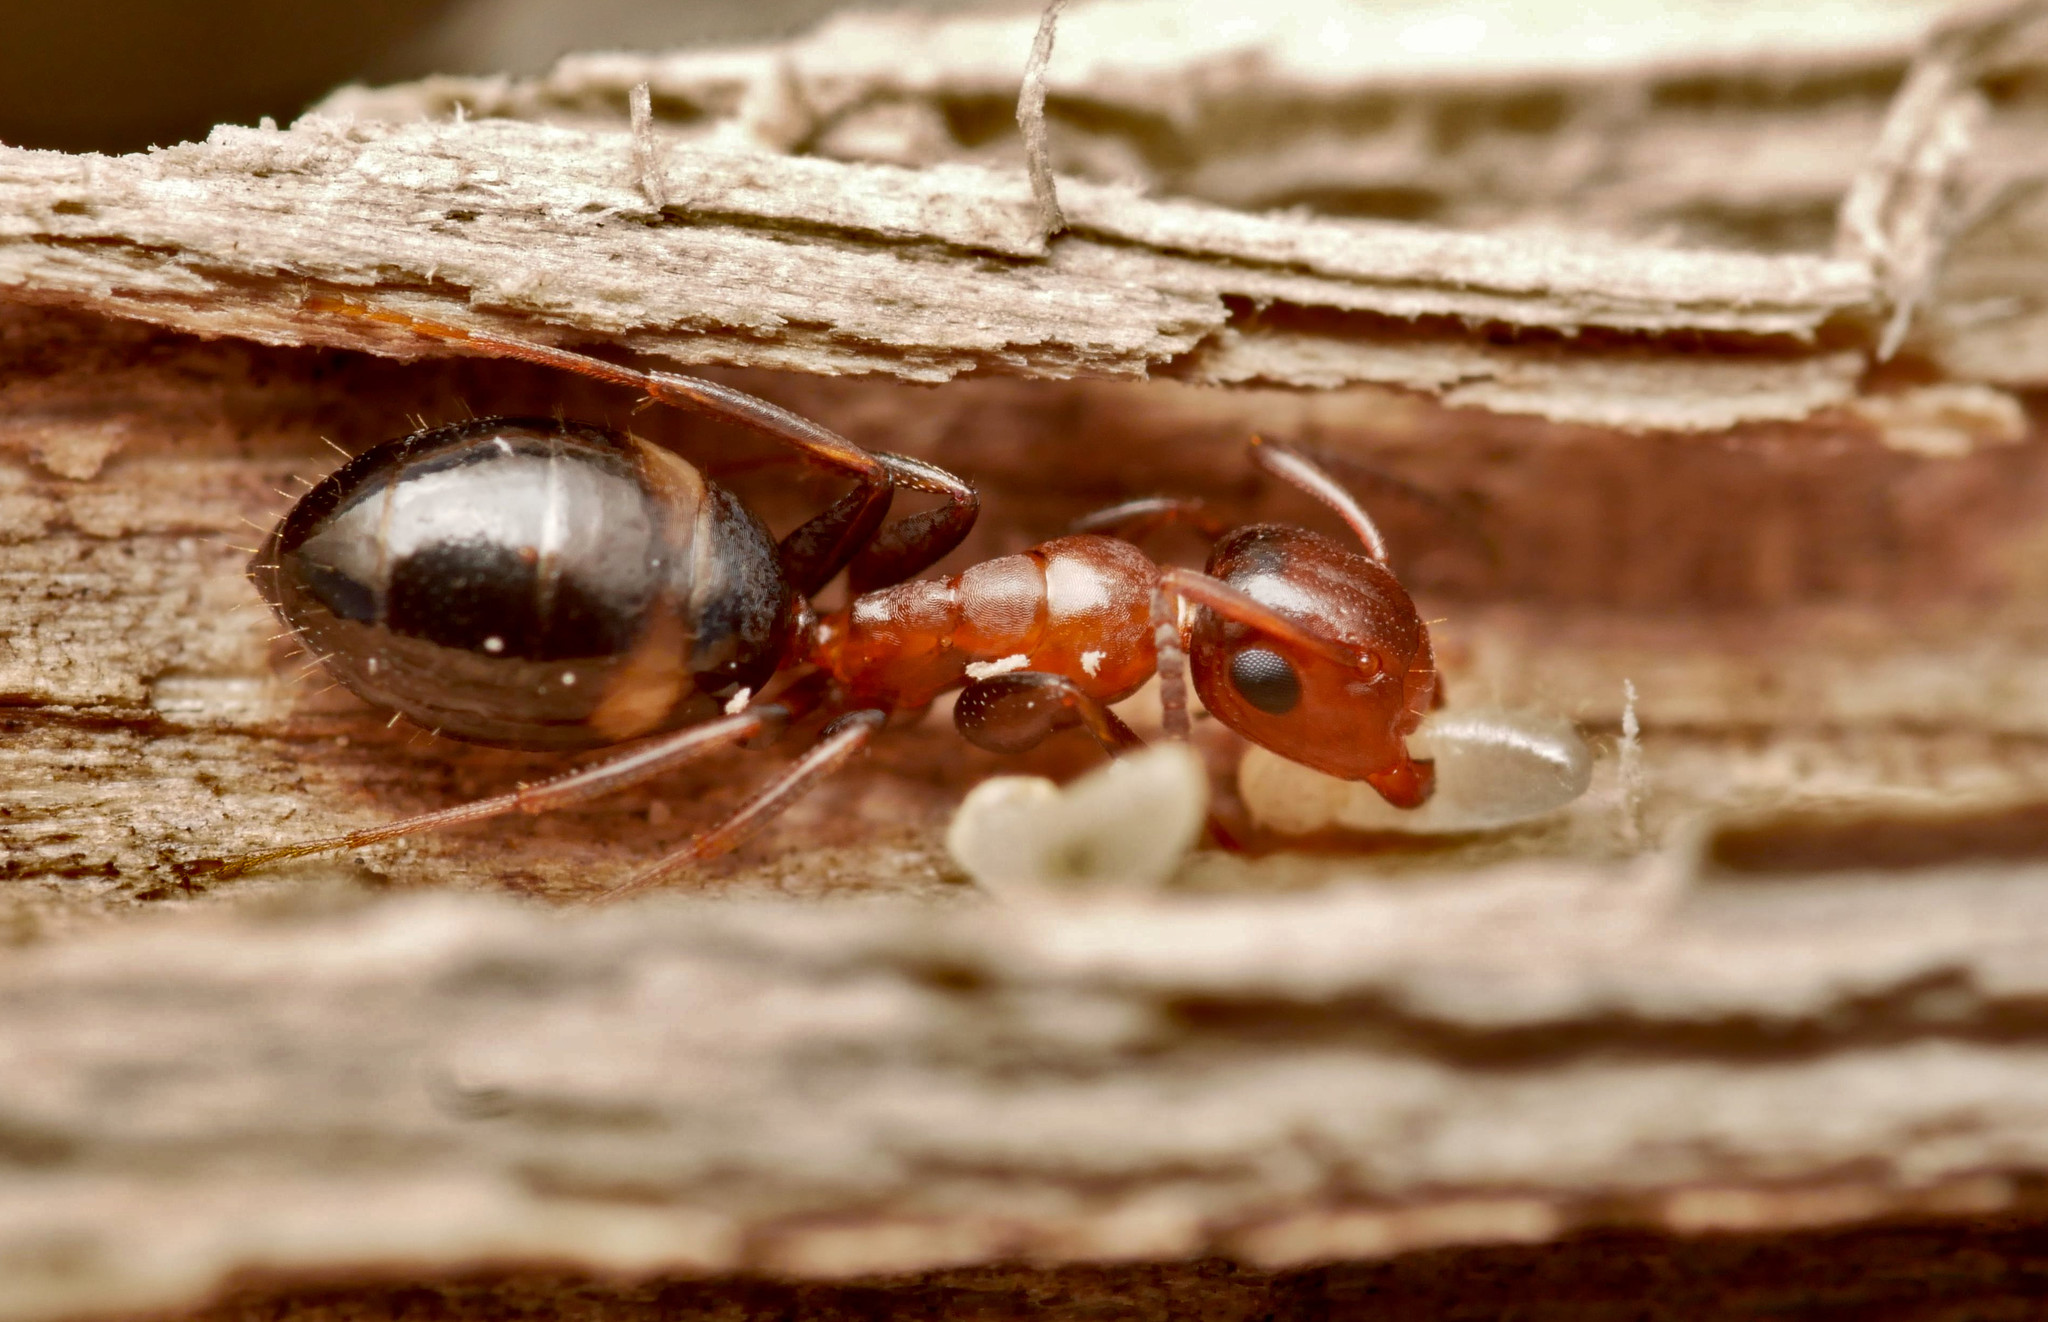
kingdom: Animalia
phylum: Arthropoda
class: Insecta
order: Hymenoptera
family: Formicidae
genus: Camponotus
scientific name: Camponotus truncatus
